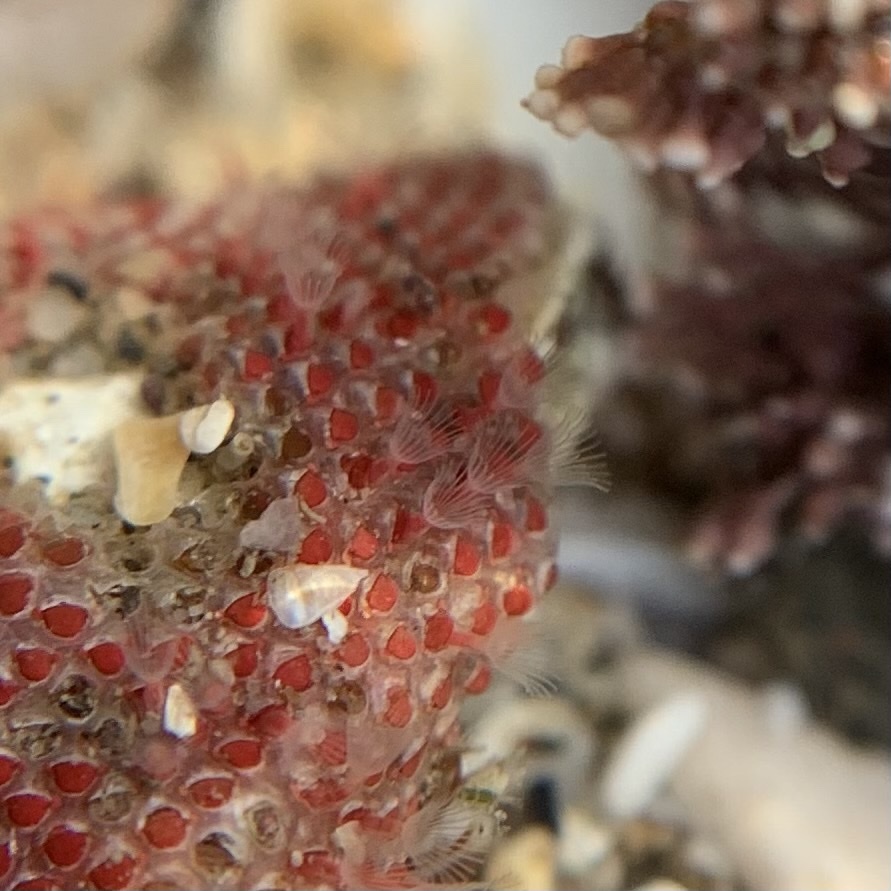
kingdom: Animalia
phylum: Bryozoa
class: Gymnolaemata
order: Cheilostomatida
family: Eurystomellidae
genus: Integripelta
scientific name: Integripelta bilabiata
